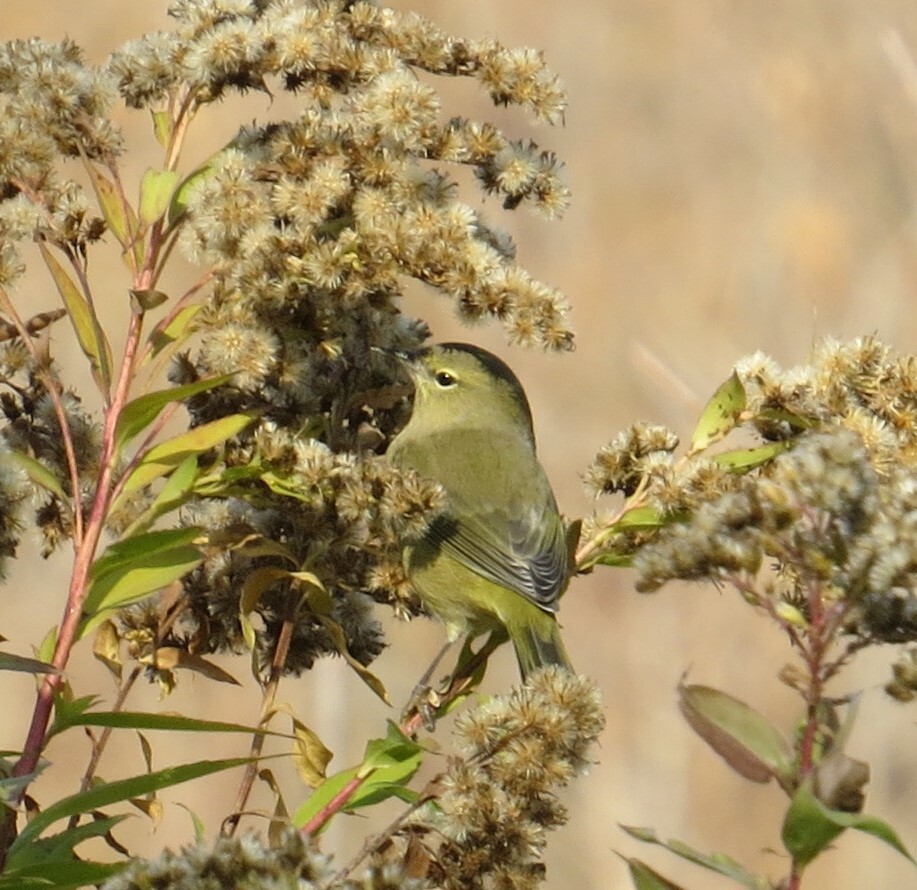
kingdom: Animalia
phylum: Chordata
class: Aves
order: Passeriformes
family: Parulidae
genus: Leiothlypis
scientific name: Leiothlypis celata
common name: Orange-crowned warbler
